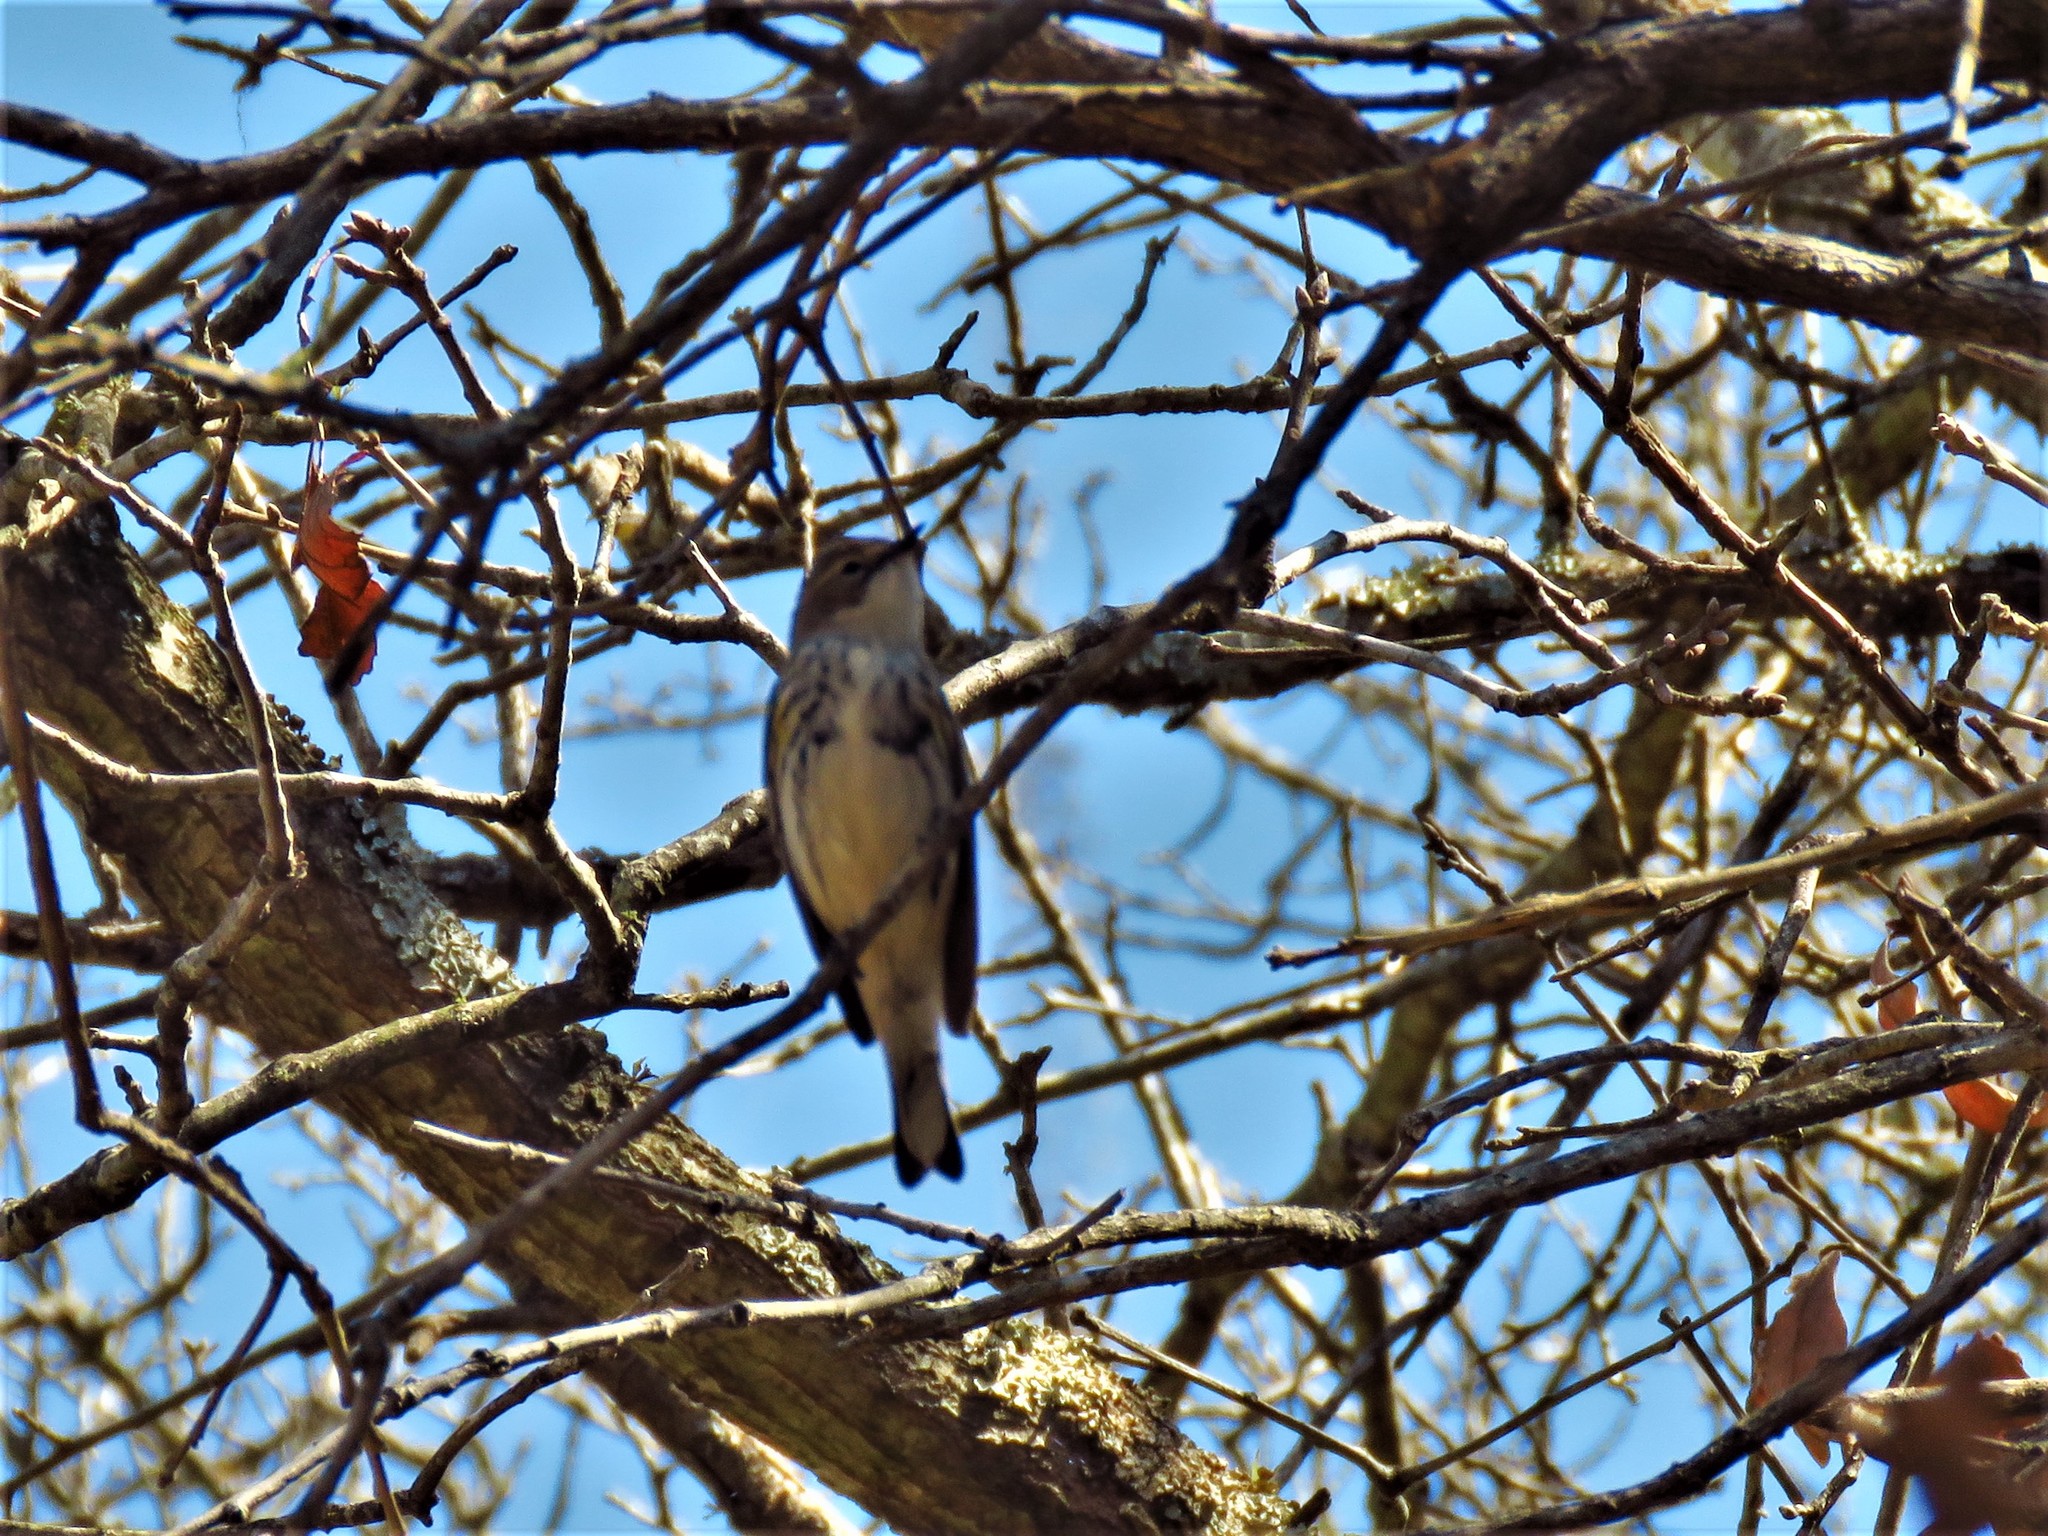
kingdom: Animalia
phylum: Chordata
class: Aves
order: Passeriformes
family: Parulidae
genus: Setophaga
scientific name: Setophaga coronata
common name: Myrtle warbler
